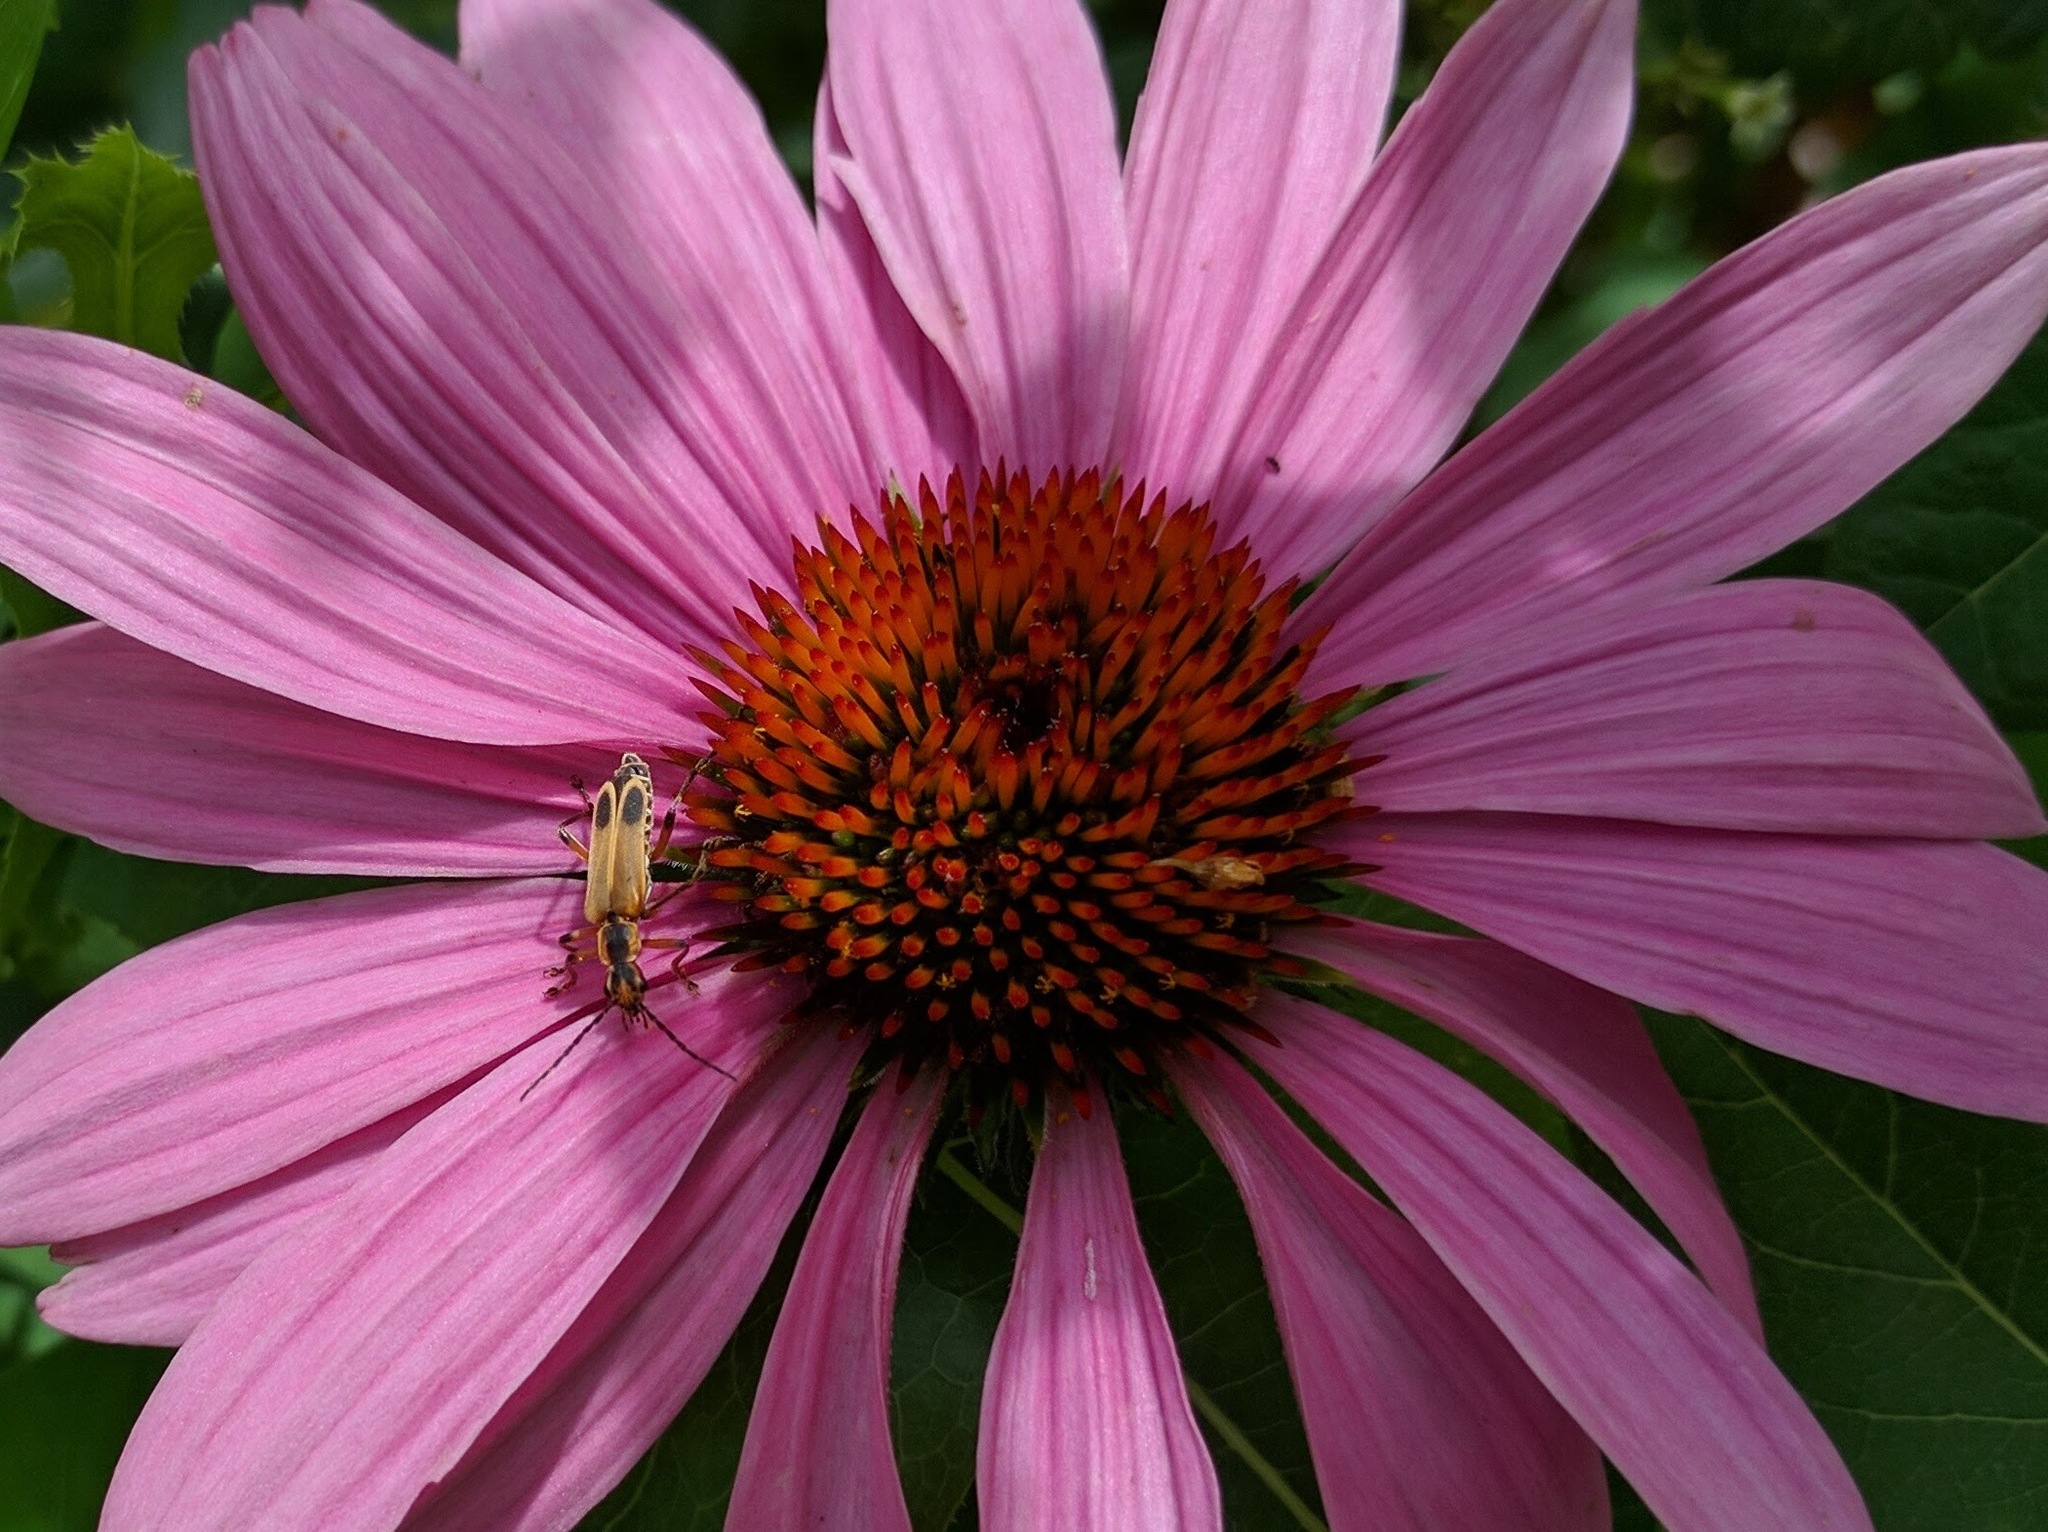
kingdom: Animalia
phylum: Arthropoda
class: Insecta
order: Coleoptera
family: Cantharidae
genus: Chauliognathus
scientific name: Chauliognathus marginatus
